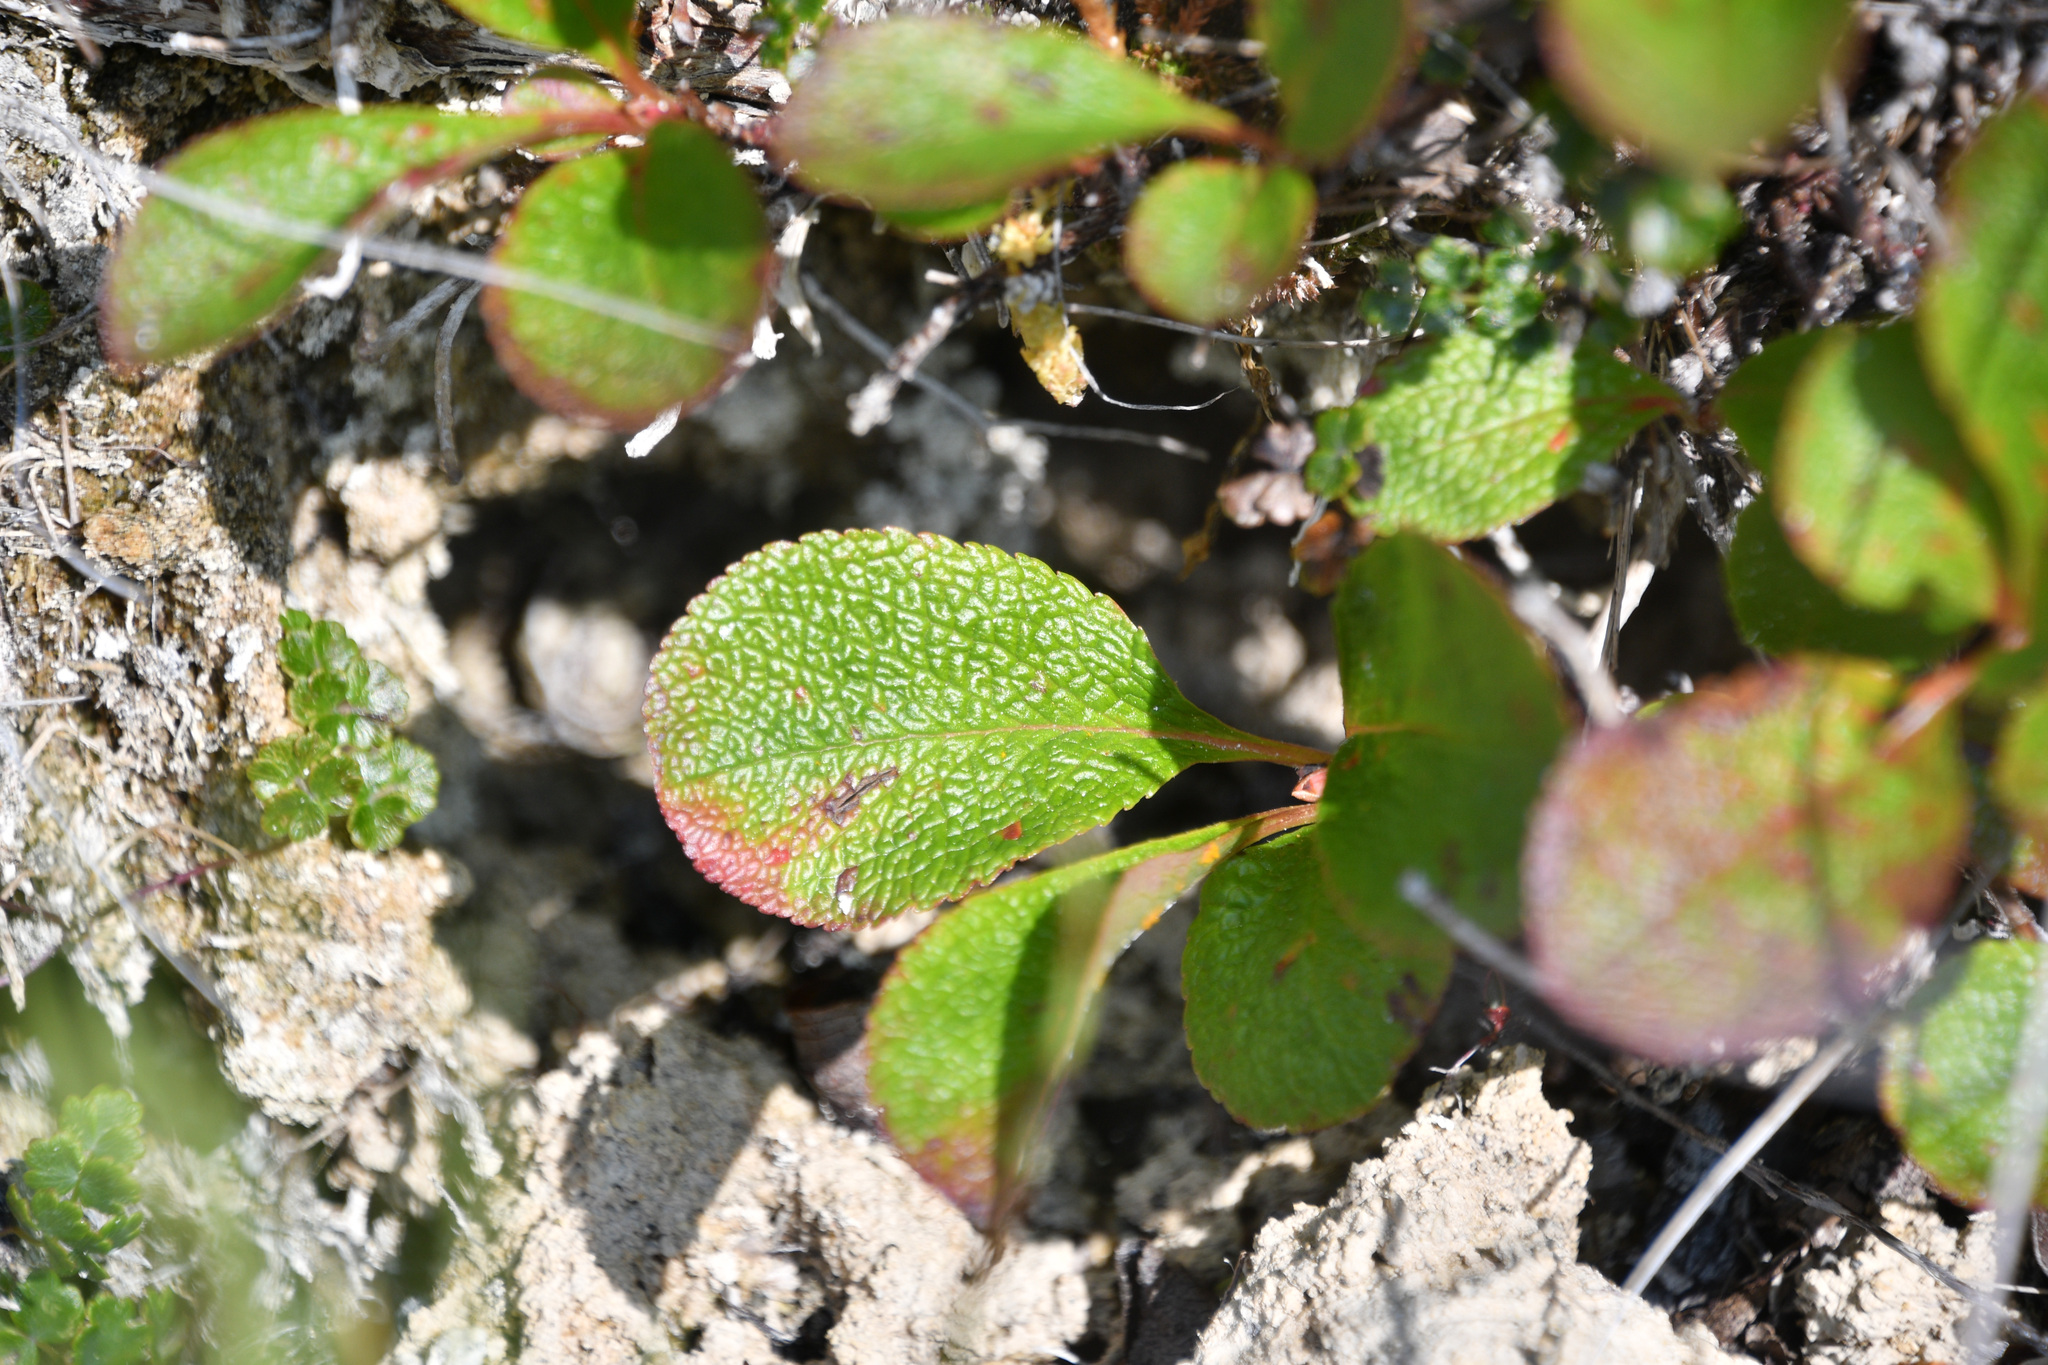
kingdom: Plantae
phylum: Tracheophyta
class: Magnoliopsida
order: Ericales
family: Ericaceae
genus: Arctostaphylos
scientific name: Arctostaphylos rubra
